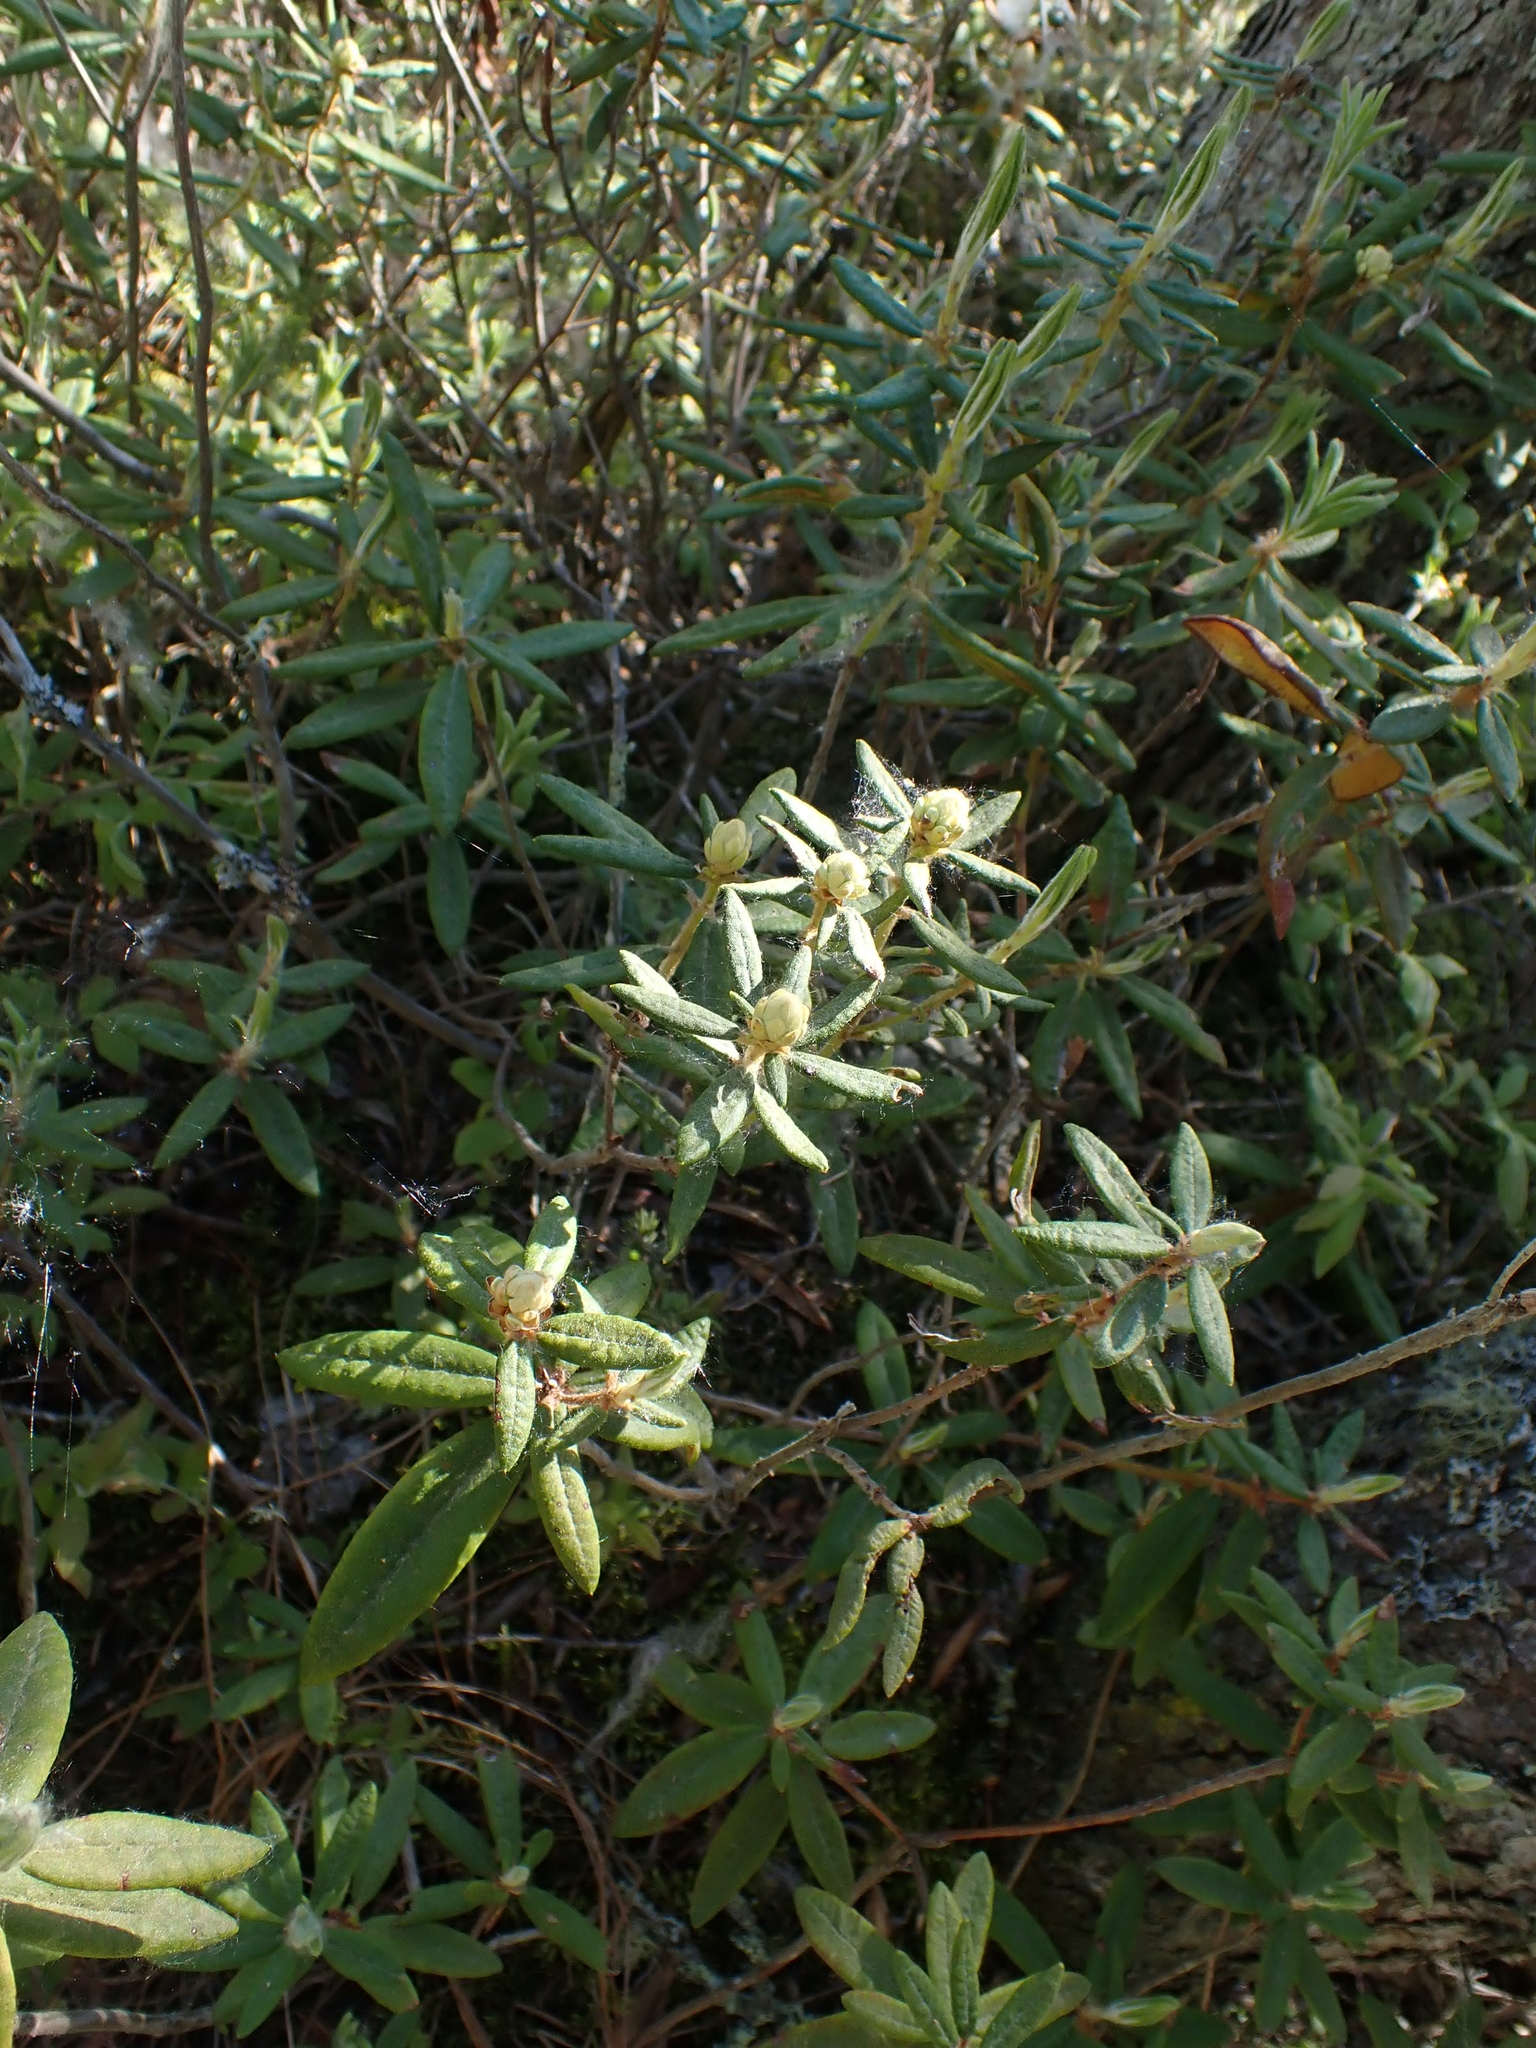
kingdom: Plantae
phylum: Tracheophyta
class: Magnoliopsida
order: Ericales
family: Ericaceae
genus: Rhododendron
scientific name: Rhododendron groenlandicum
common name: Bog labrador tea
